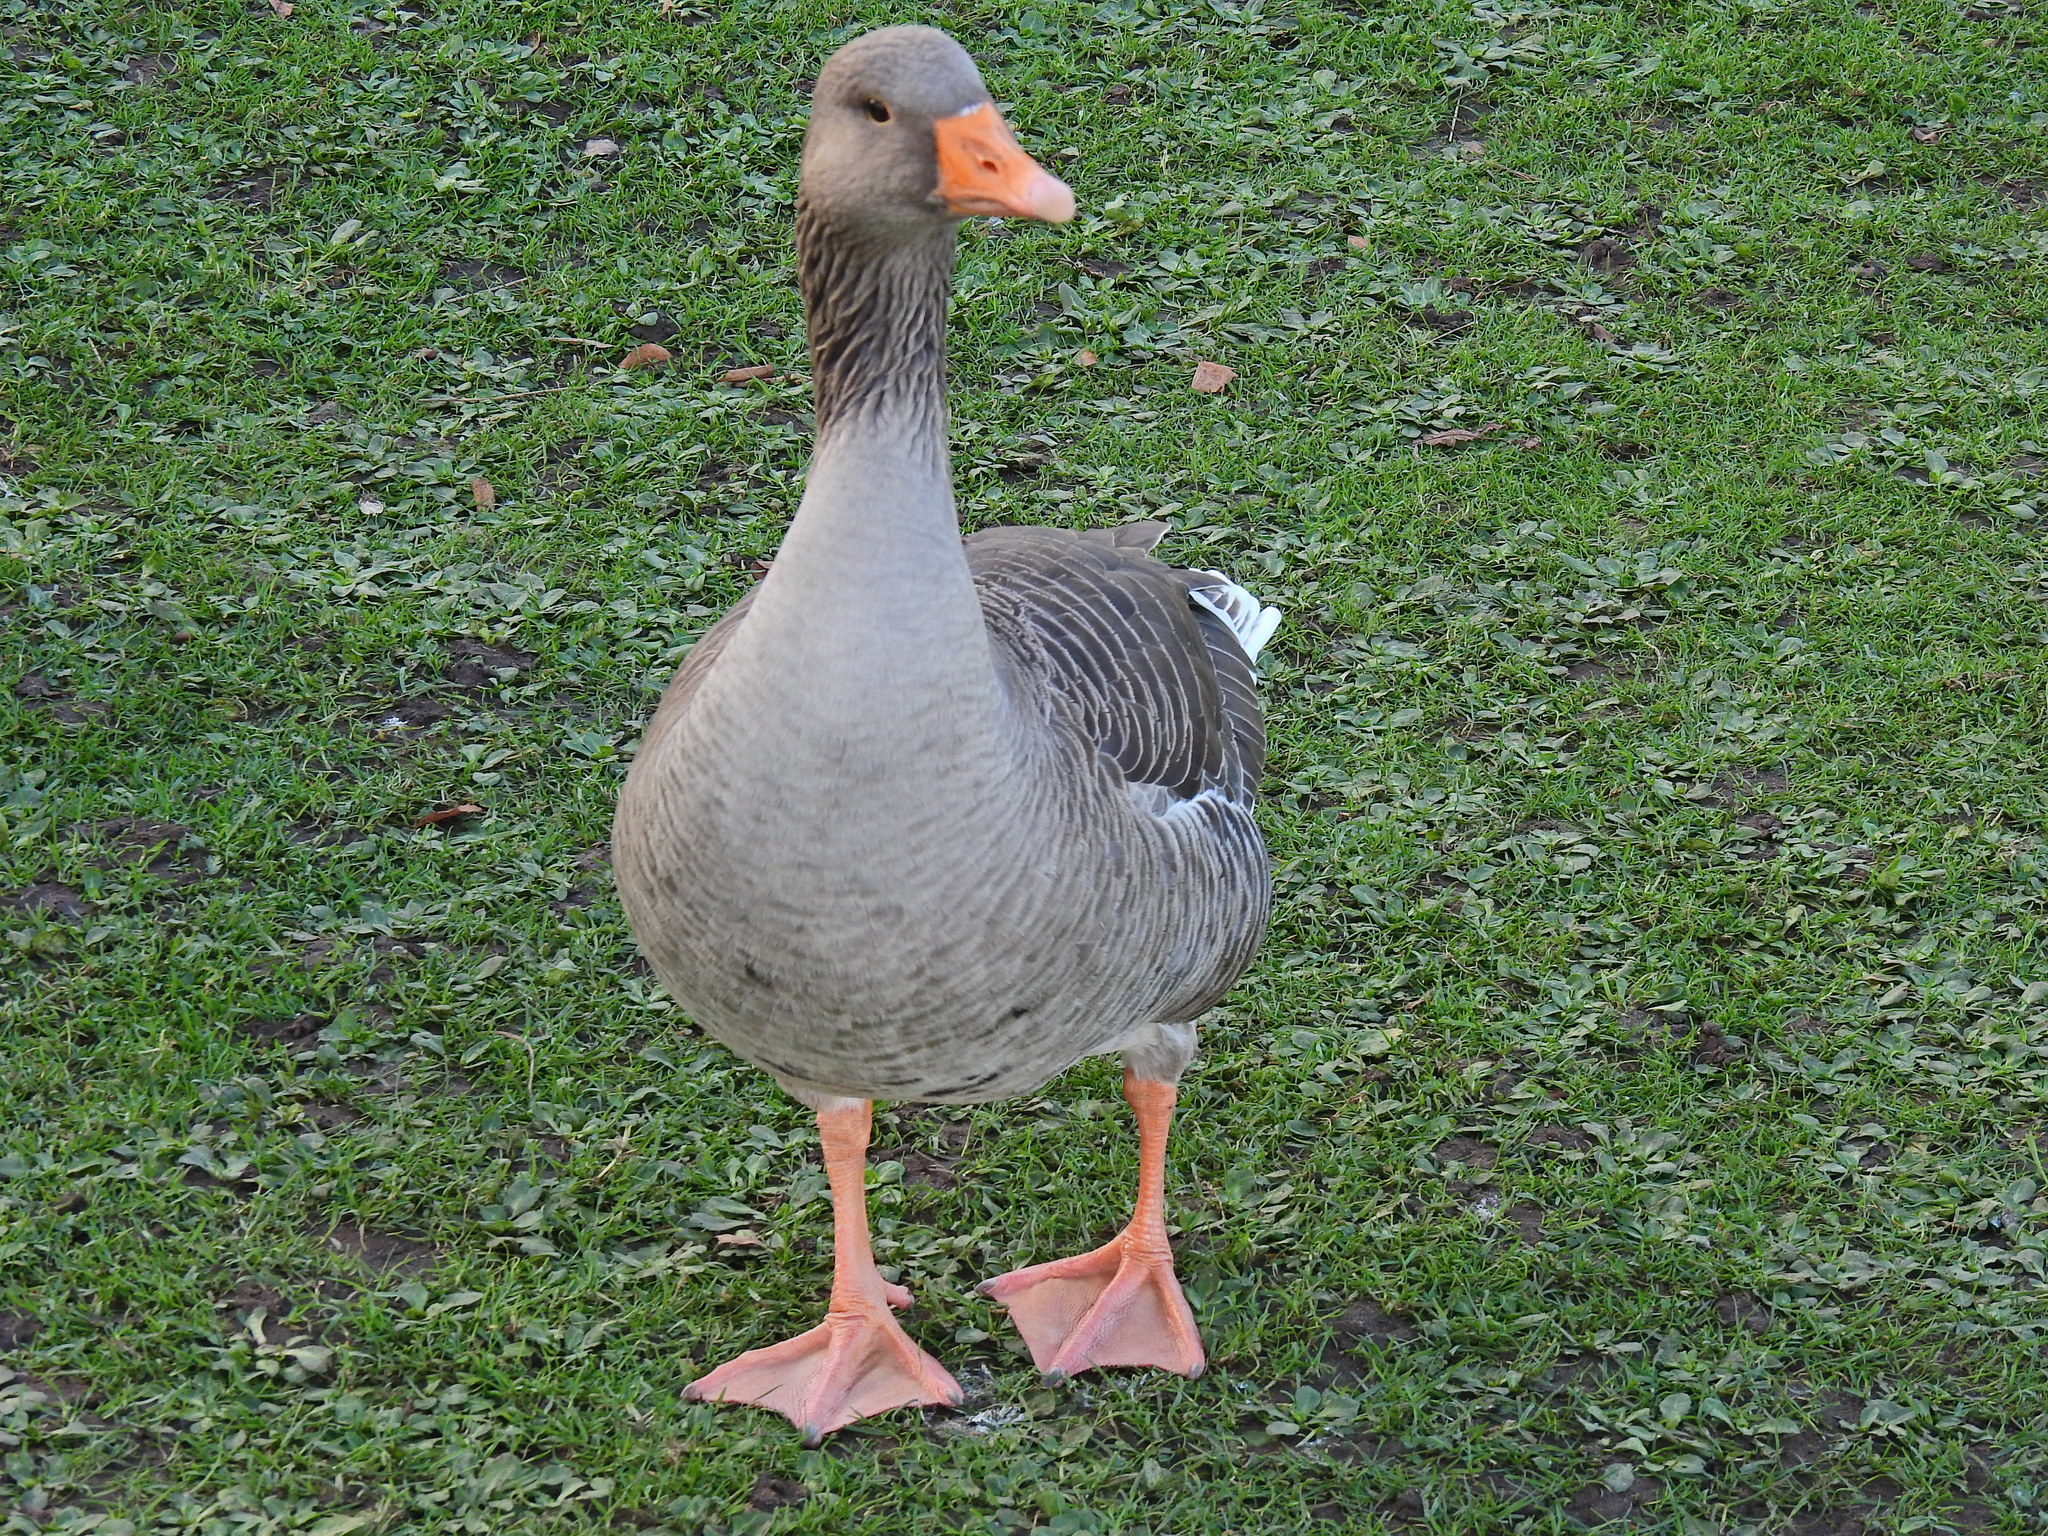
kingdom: Animalia
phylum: Chordata
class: Aves
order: Anseriformes
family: Anatidae
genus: Anser
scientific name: Anser anser
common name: Greylag goose
